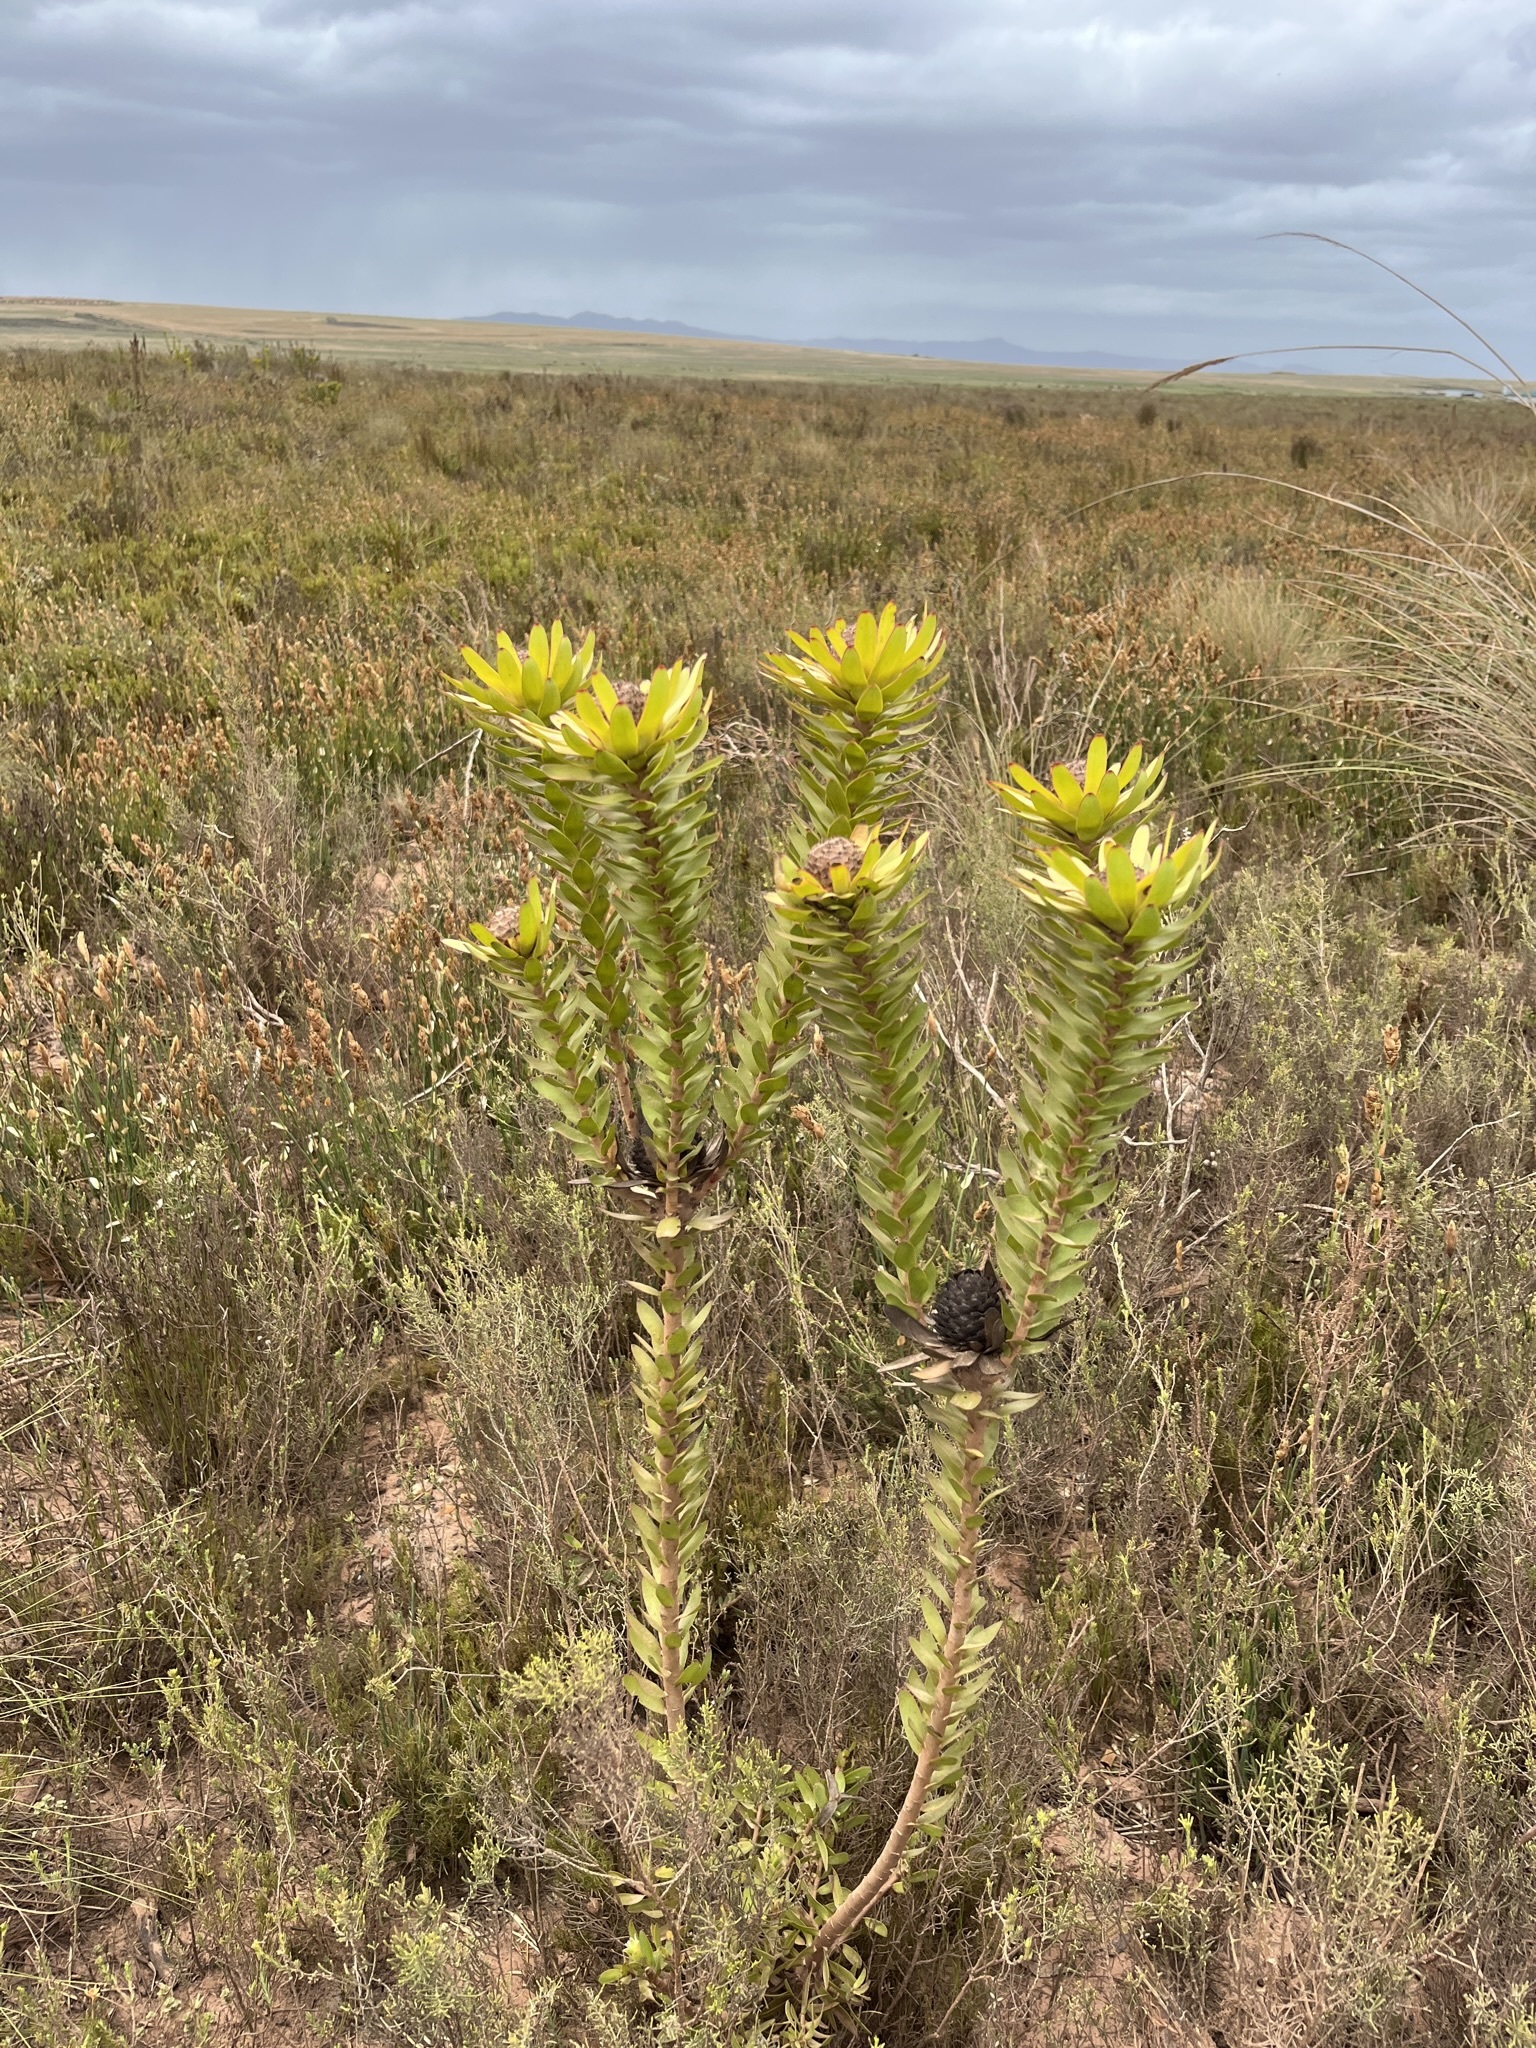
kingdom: Plantae
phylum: Tracheophyta
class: Magnoliopsida
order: Proteales
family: Proteaceae
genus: Leucadendron
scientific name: Leucadendron elimense
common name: Elim conebush
